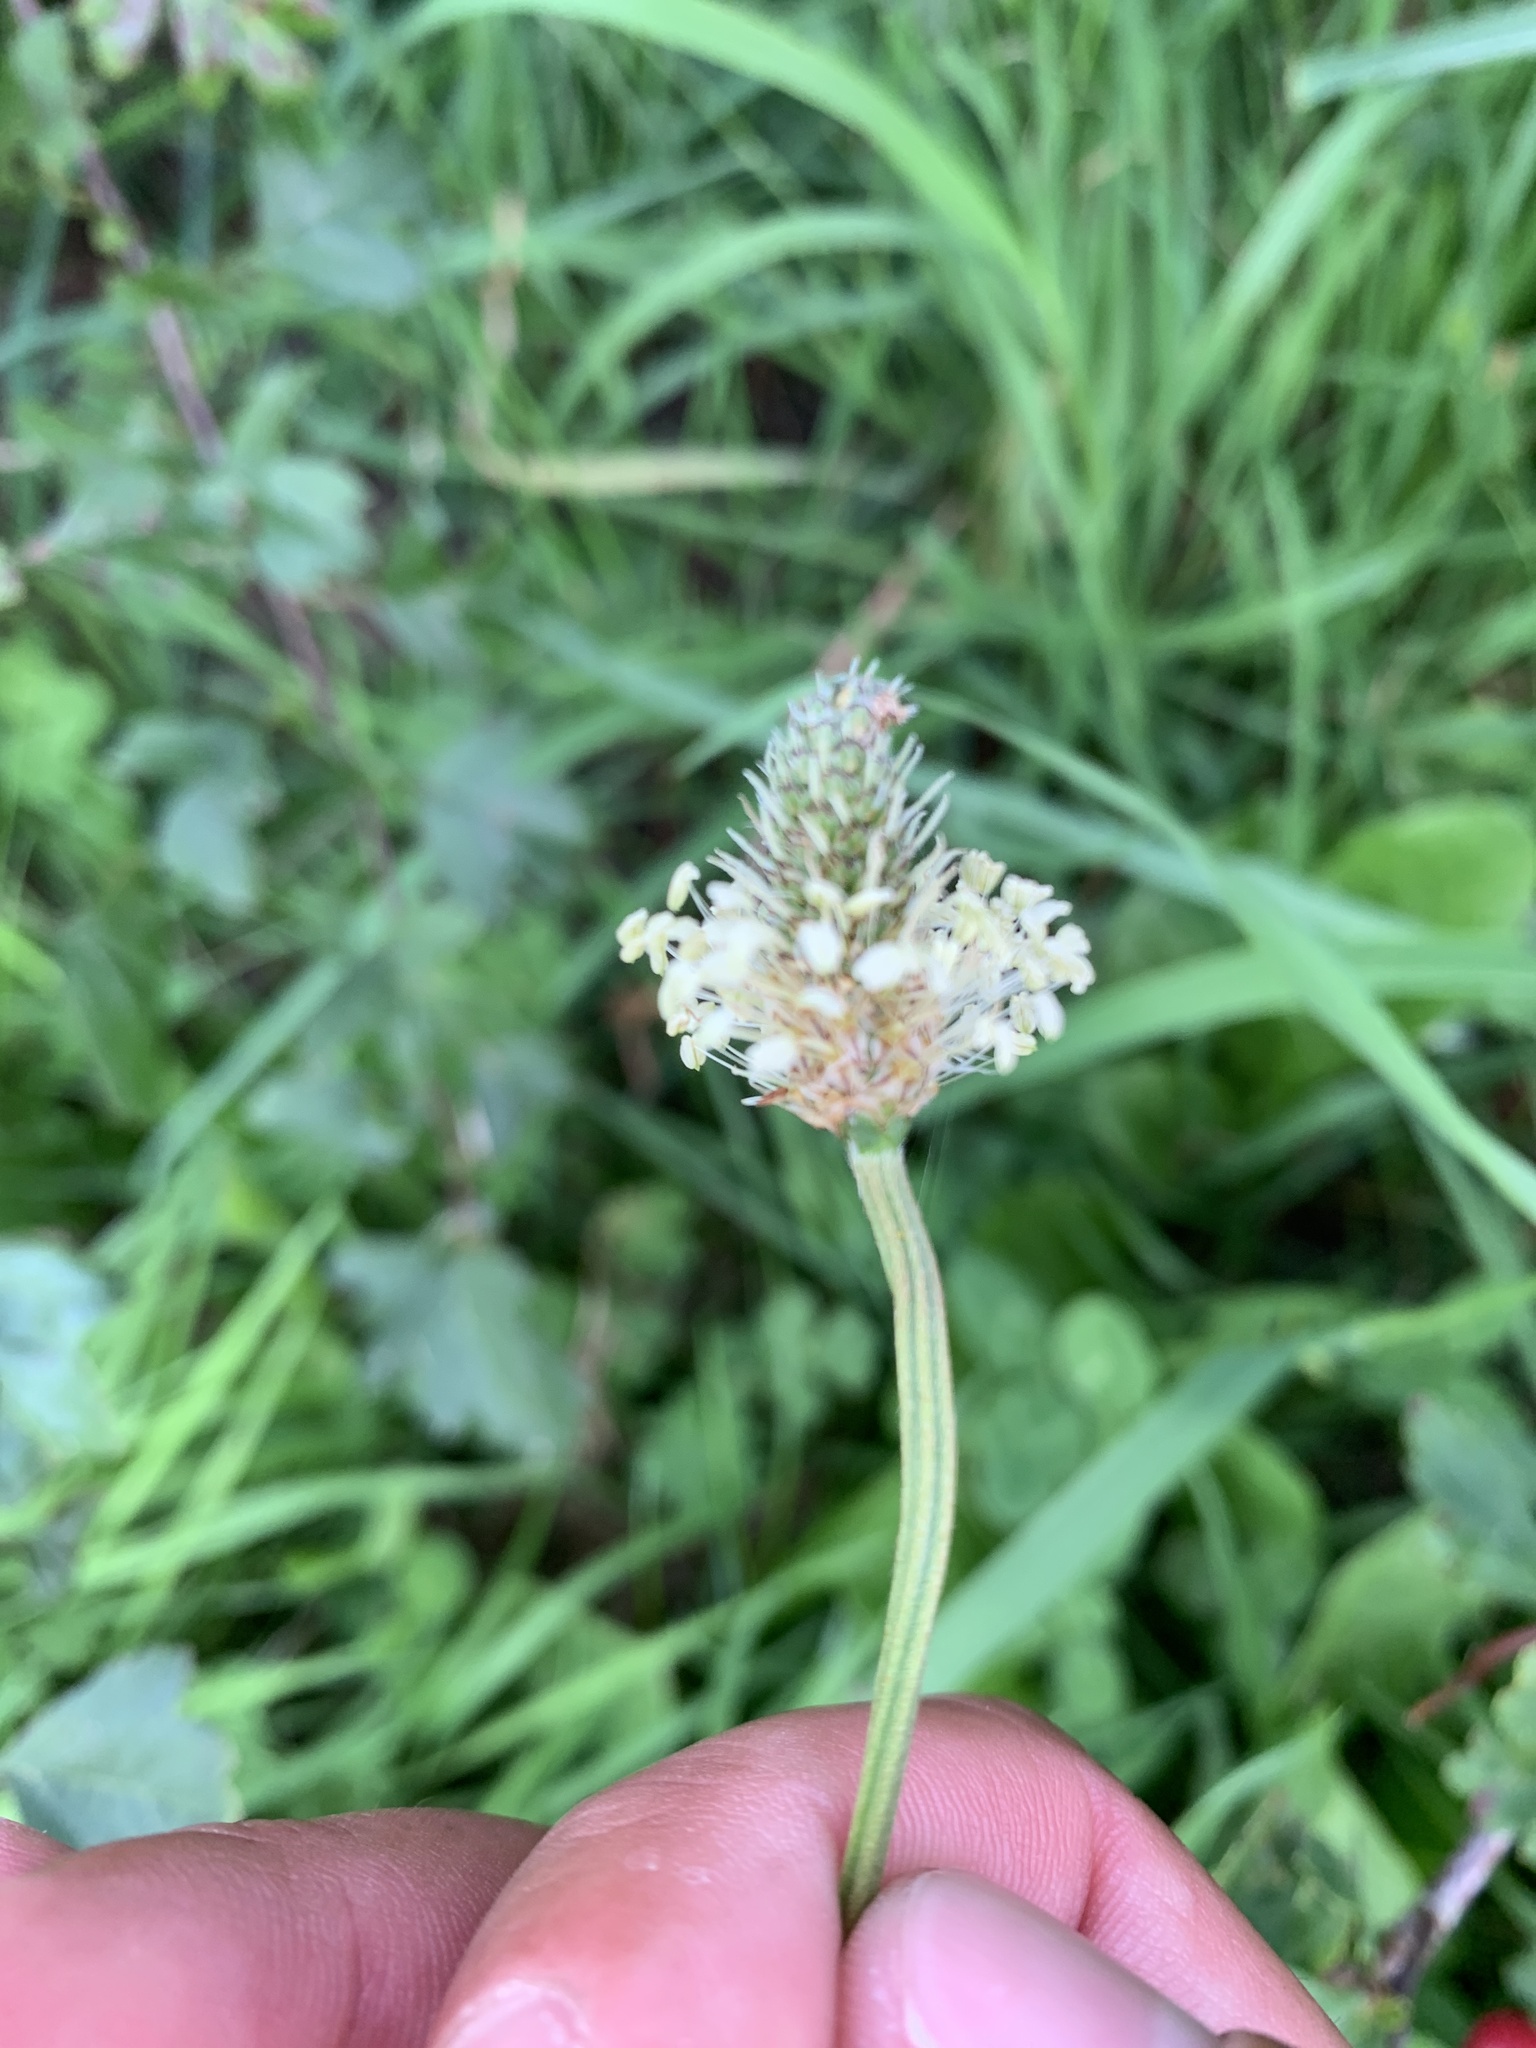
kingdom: Plantae
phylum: Tracheophyta
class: Magnoliopsida
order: Lamiales
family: Plantaginaceae
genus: Plantago
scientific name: Plantago lanceolata
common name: Ribwort plantain
